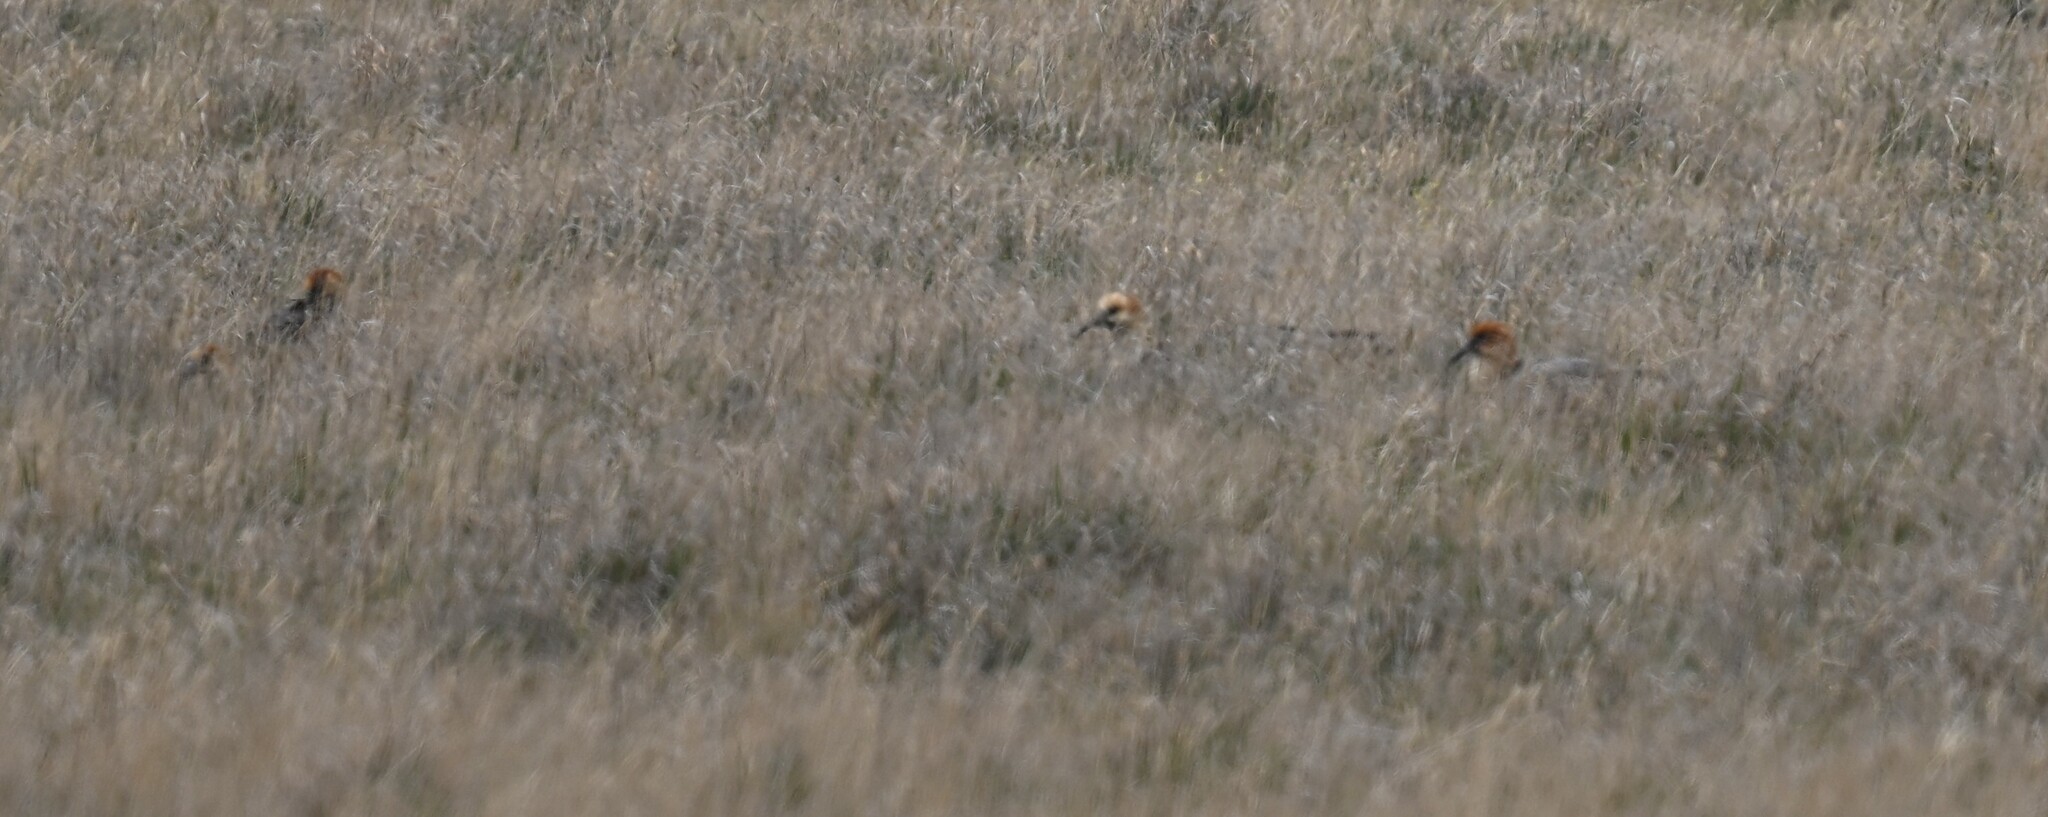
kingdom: Animalia
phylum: Chordata
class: Aves
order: Pelecaniformes
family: Threskiornithidae
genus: Theristicus
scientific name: Theristicus melanopis
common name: Black-faced ibis
